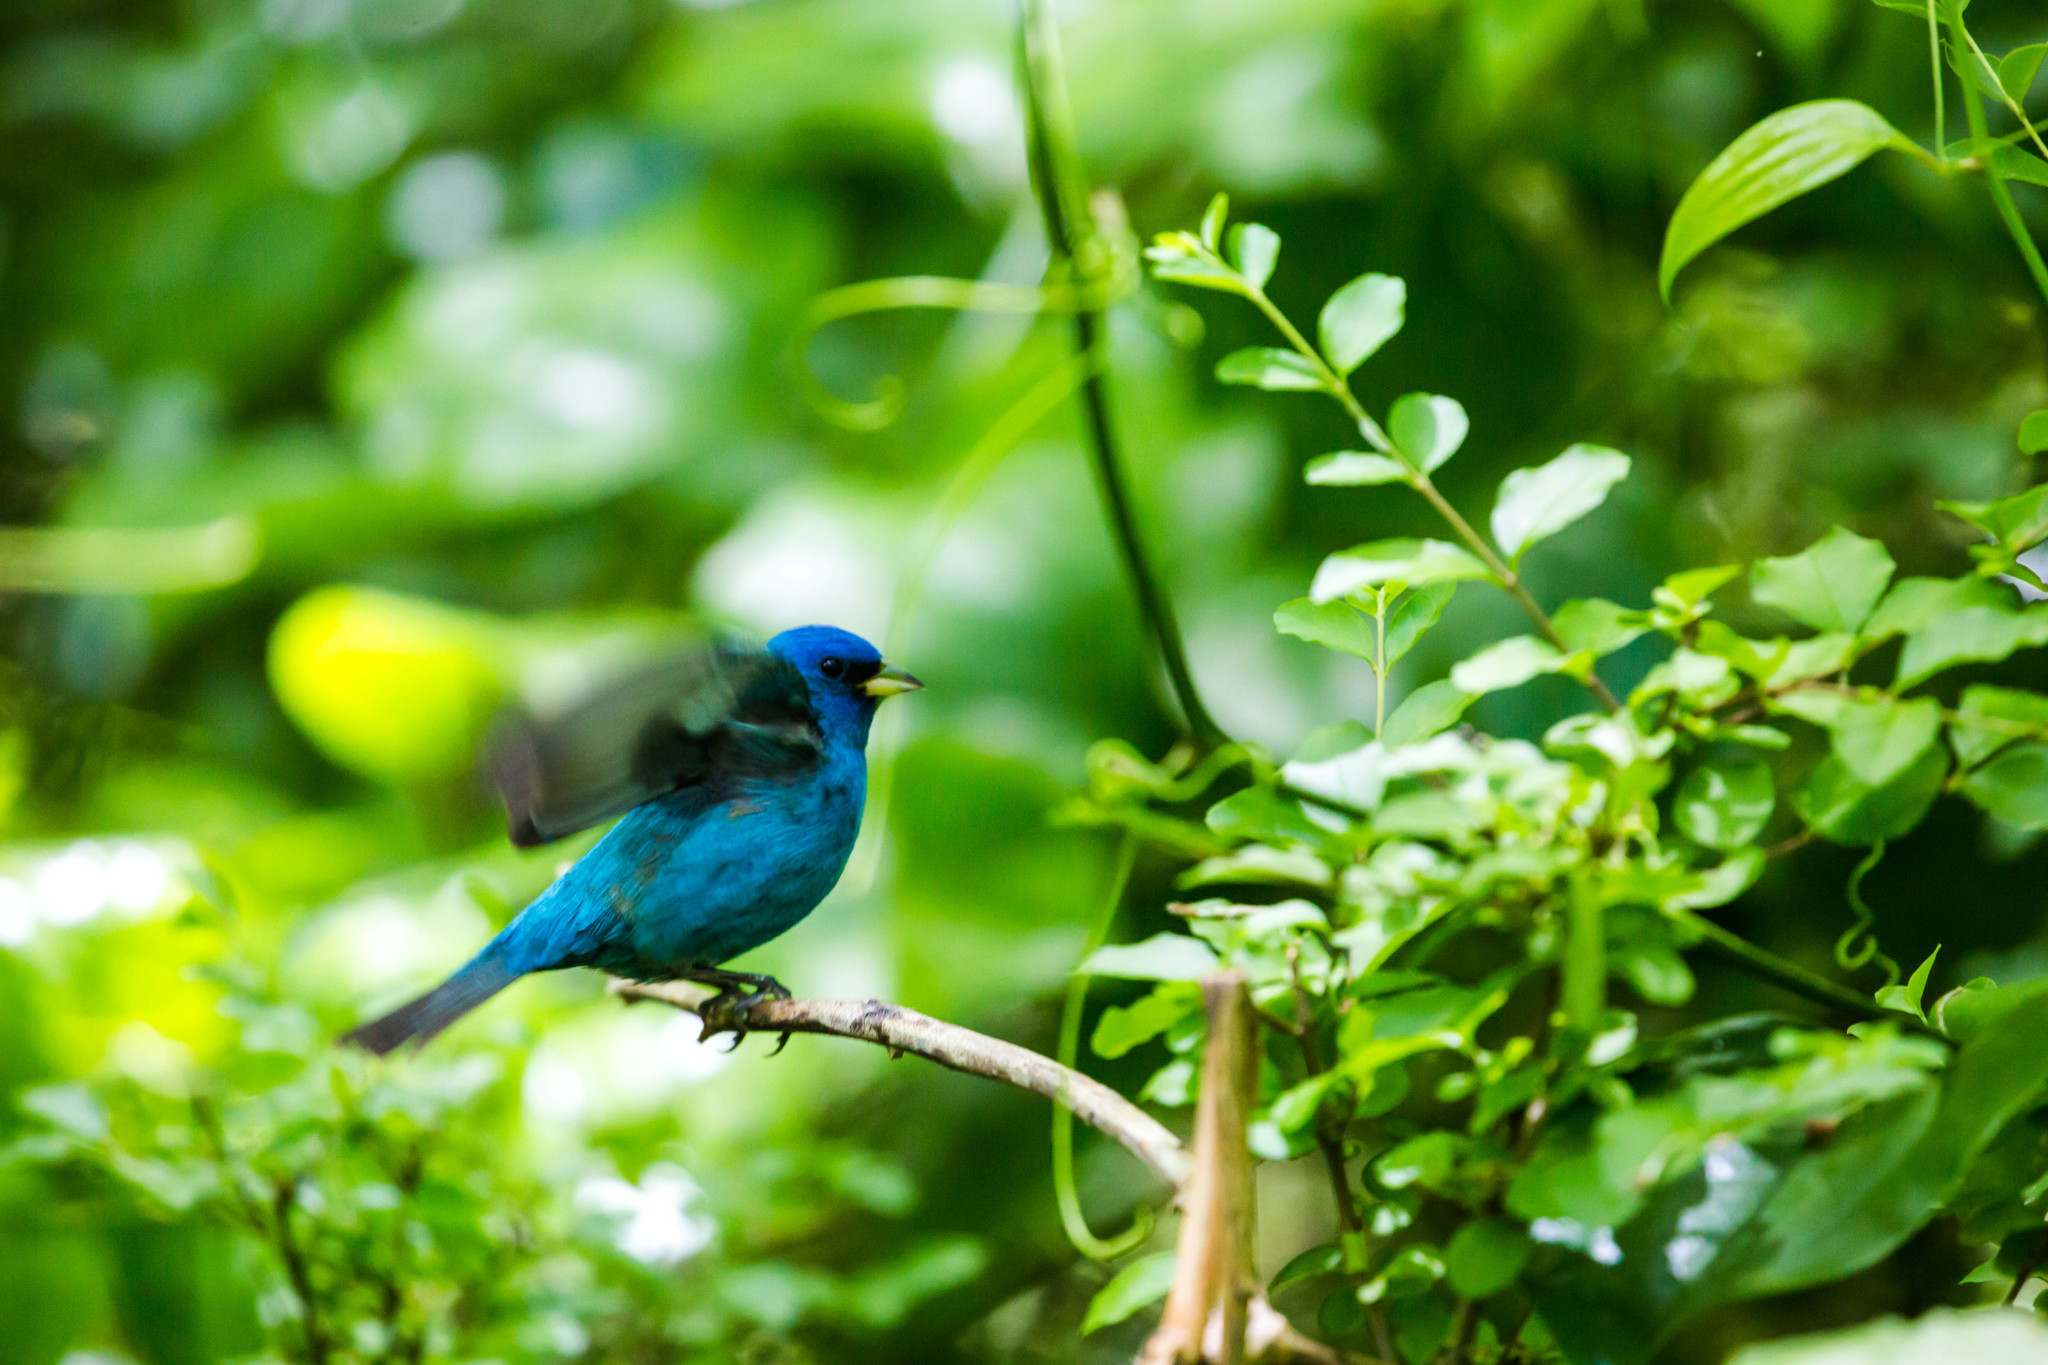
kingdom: Animalia
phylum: Chordata
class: Aves
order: Passeriformes
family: Cardinalidae
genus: Passerina
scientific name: Passerina cyanea
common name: Indigo bunting
